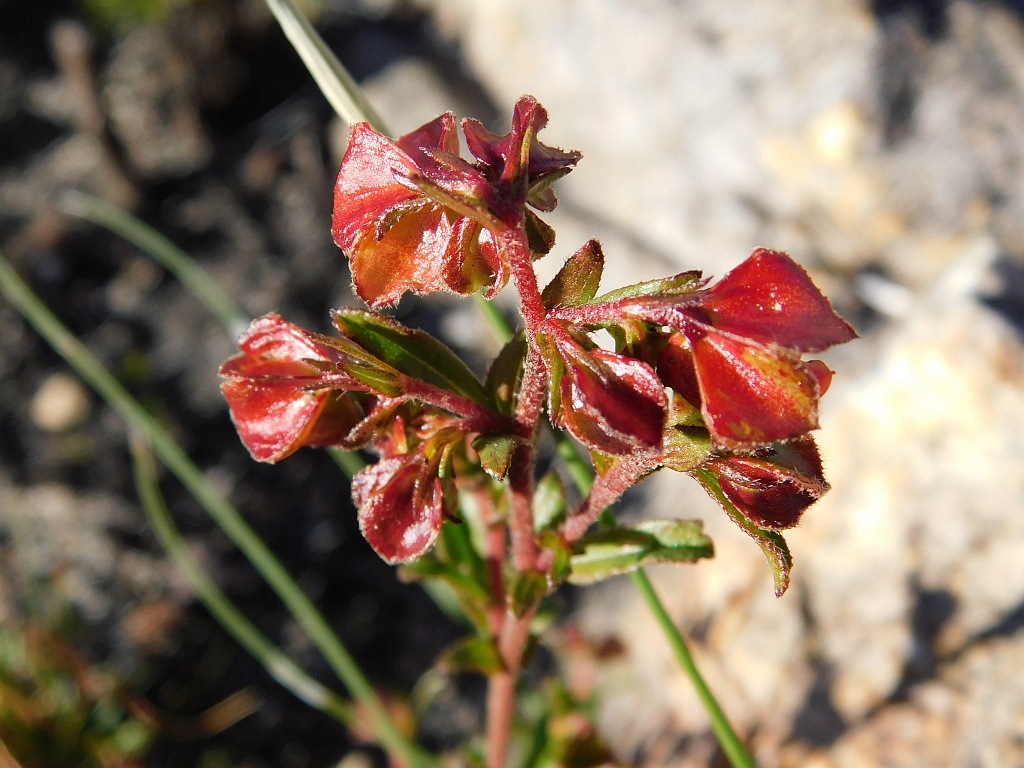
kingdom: Plantae
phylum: Tracheophyta
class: Magnoliopsida
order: Malvales
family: Malvaceae
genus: Hermannia
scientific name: Hermannia angularis
